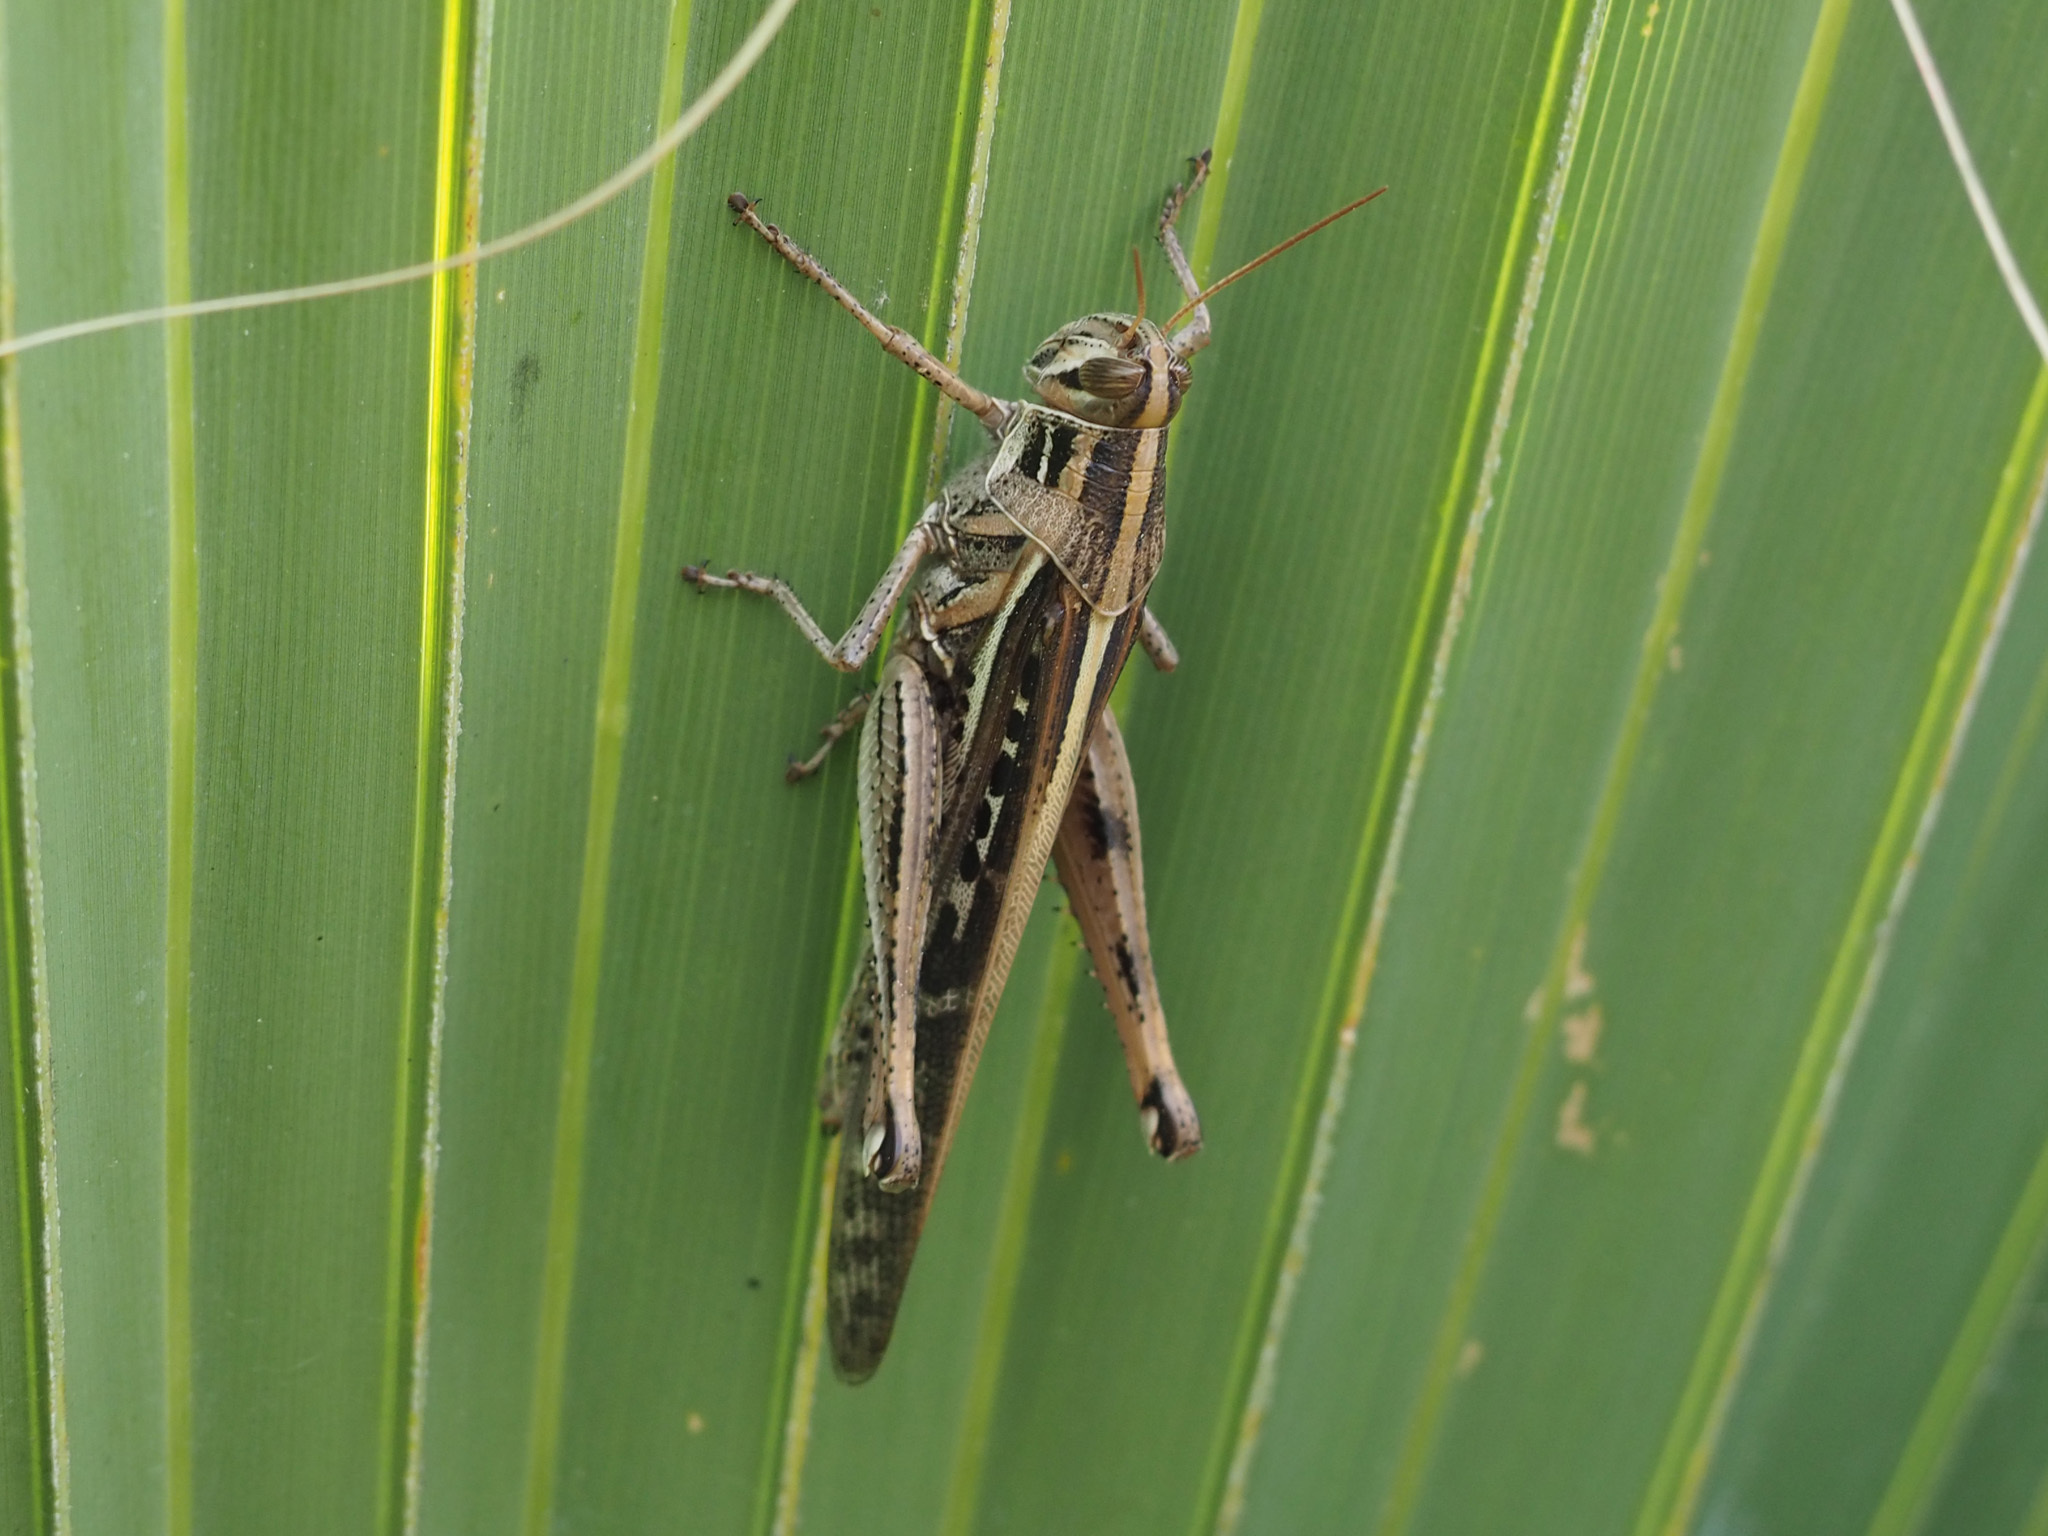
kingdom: Animalia
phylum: Arthropoda
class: Insecta
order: Orthoptera
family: Acrididae
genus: Schistocerca
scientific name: Schistocerca americana
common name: American bird locust
